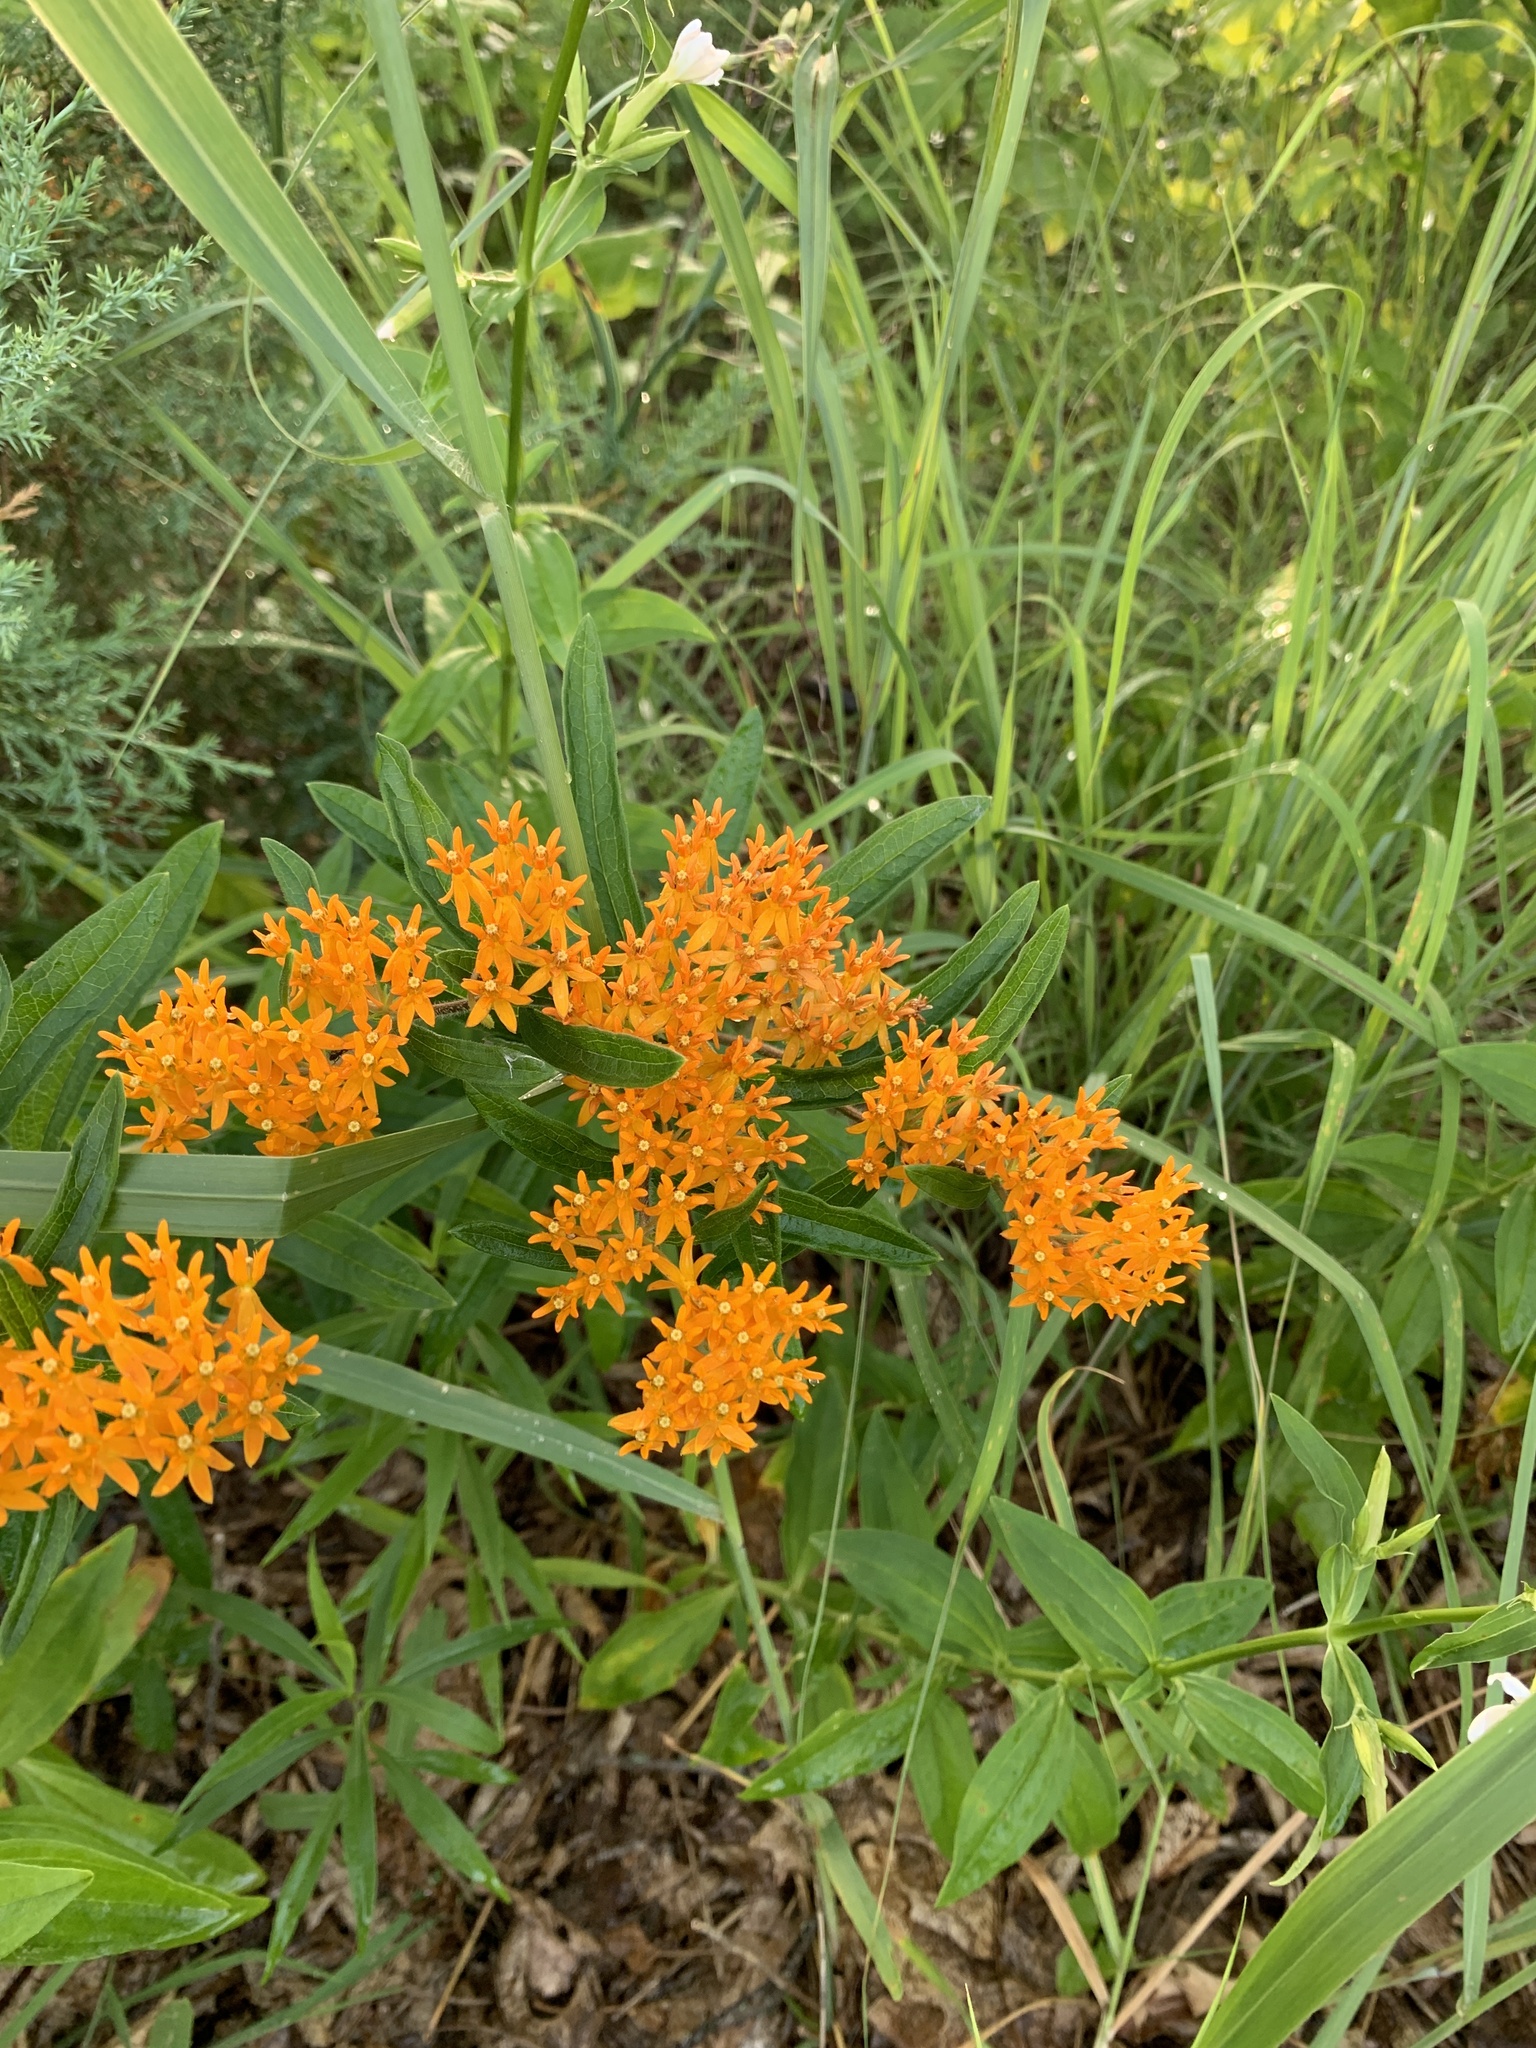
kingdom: Plantae
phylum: Tracheophyta
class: Magnoliopsida
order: Gentianales
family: Apocynaceae
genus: Asclepias
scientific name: Asclepias tuberosa
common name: Butterfly milkweed
